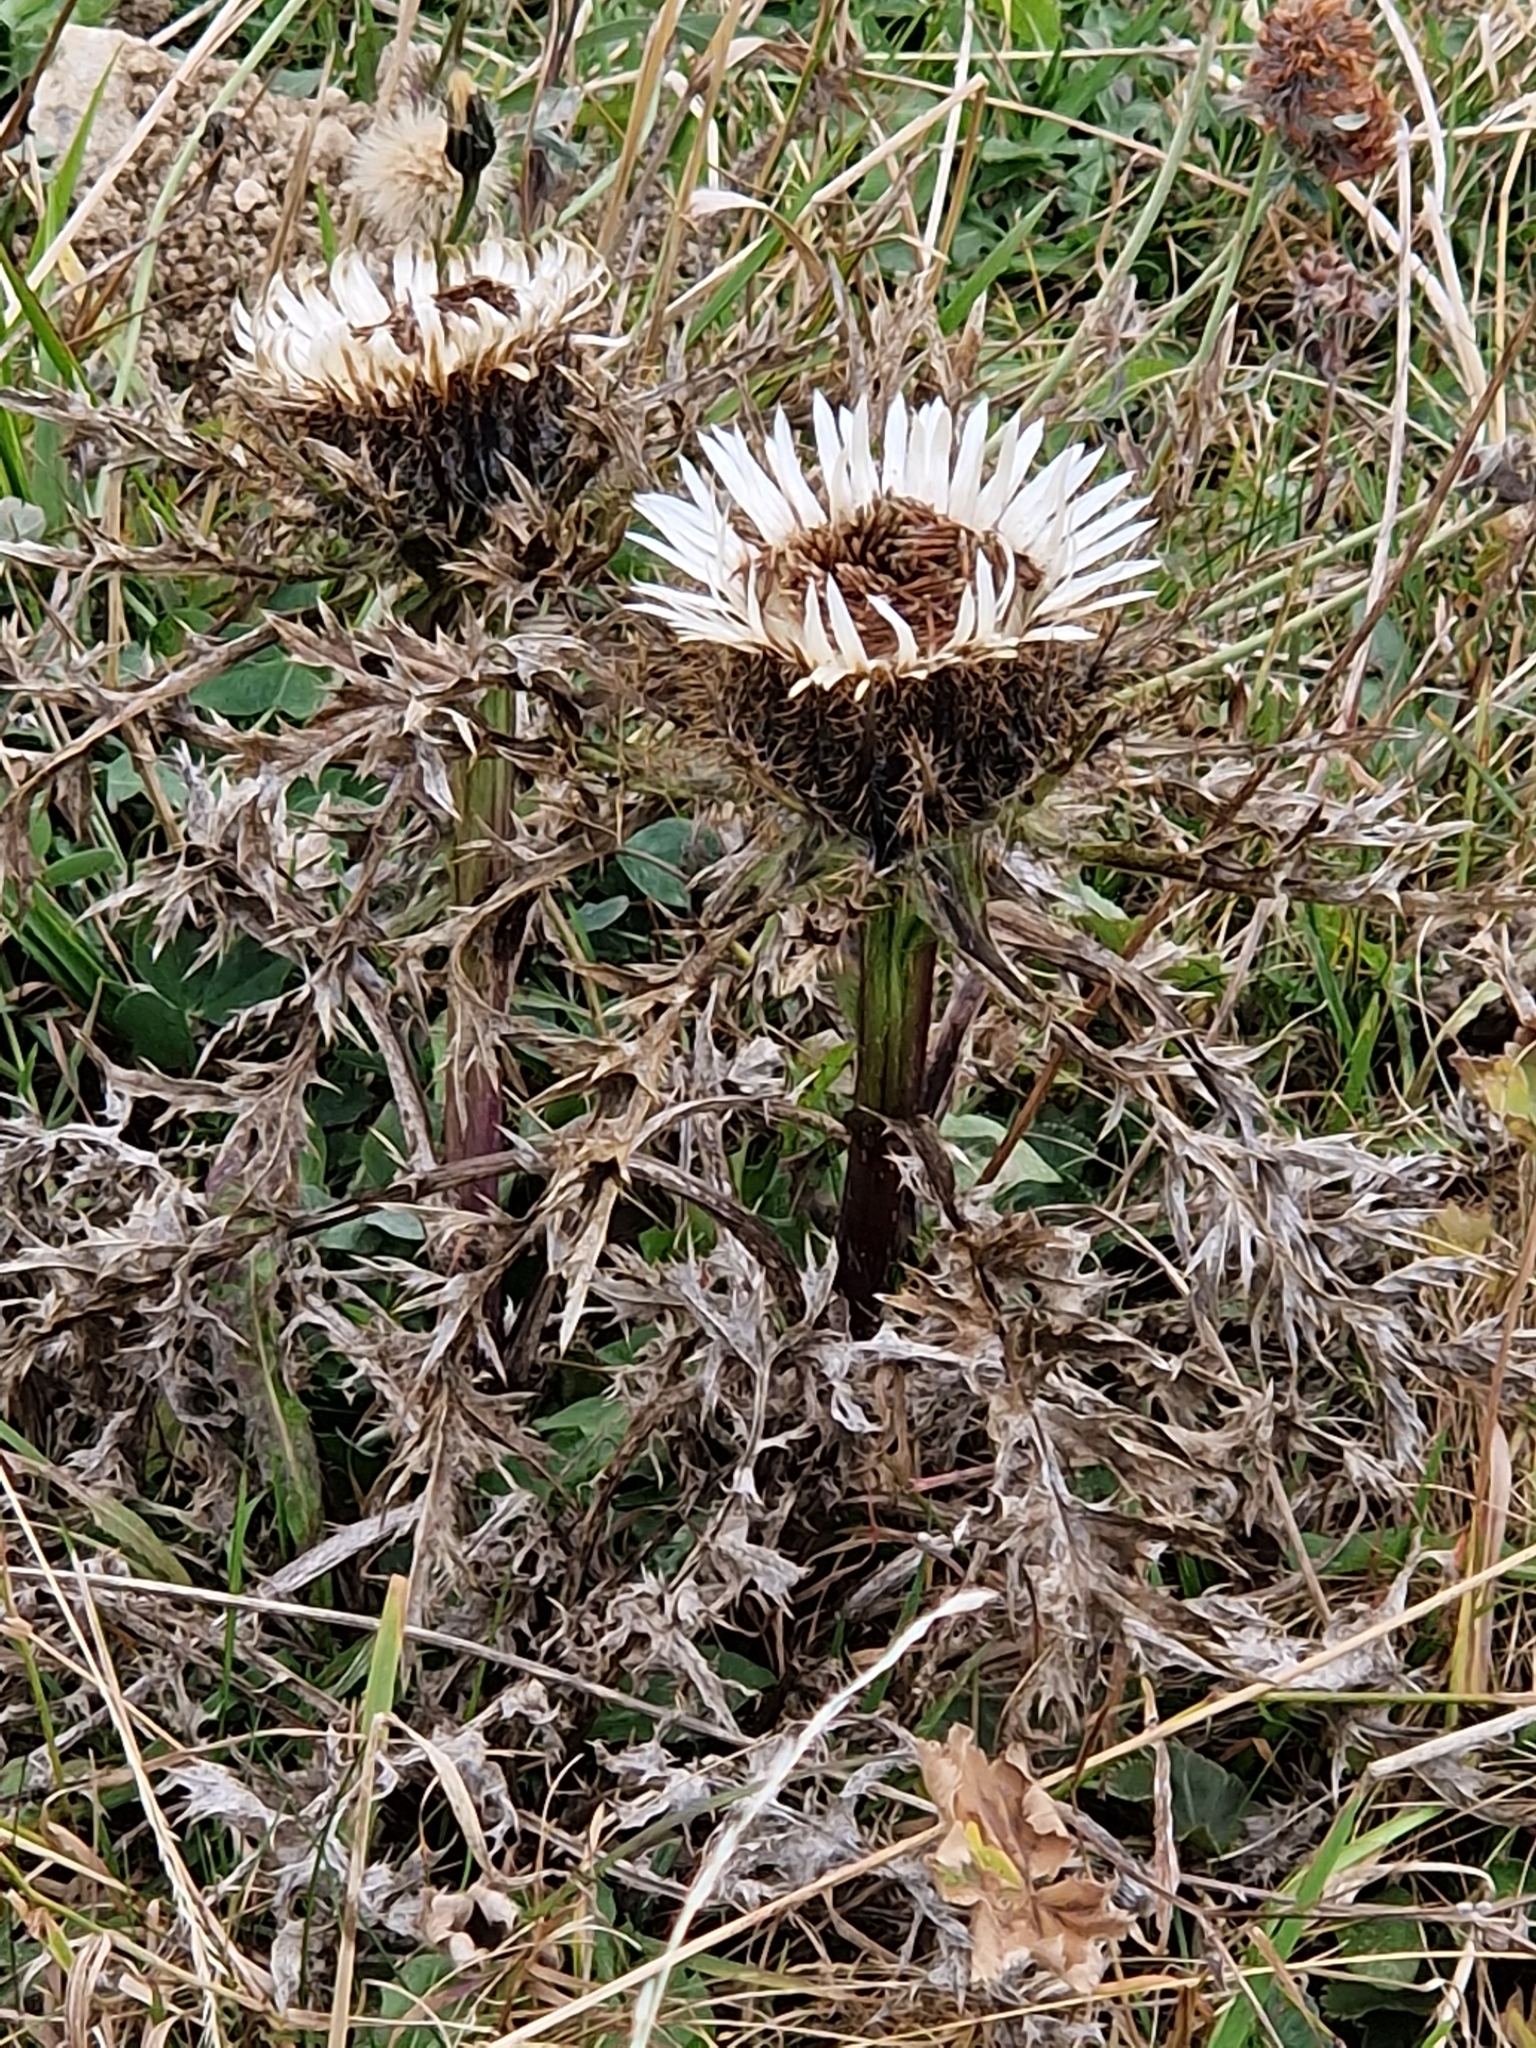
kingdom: Plantae
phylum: Tracheophyta
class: Magnoliopsida
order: Asterales
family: Asteraceae
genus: Carlina
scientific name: Carlina acaulis
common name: Stemless carline thistle
